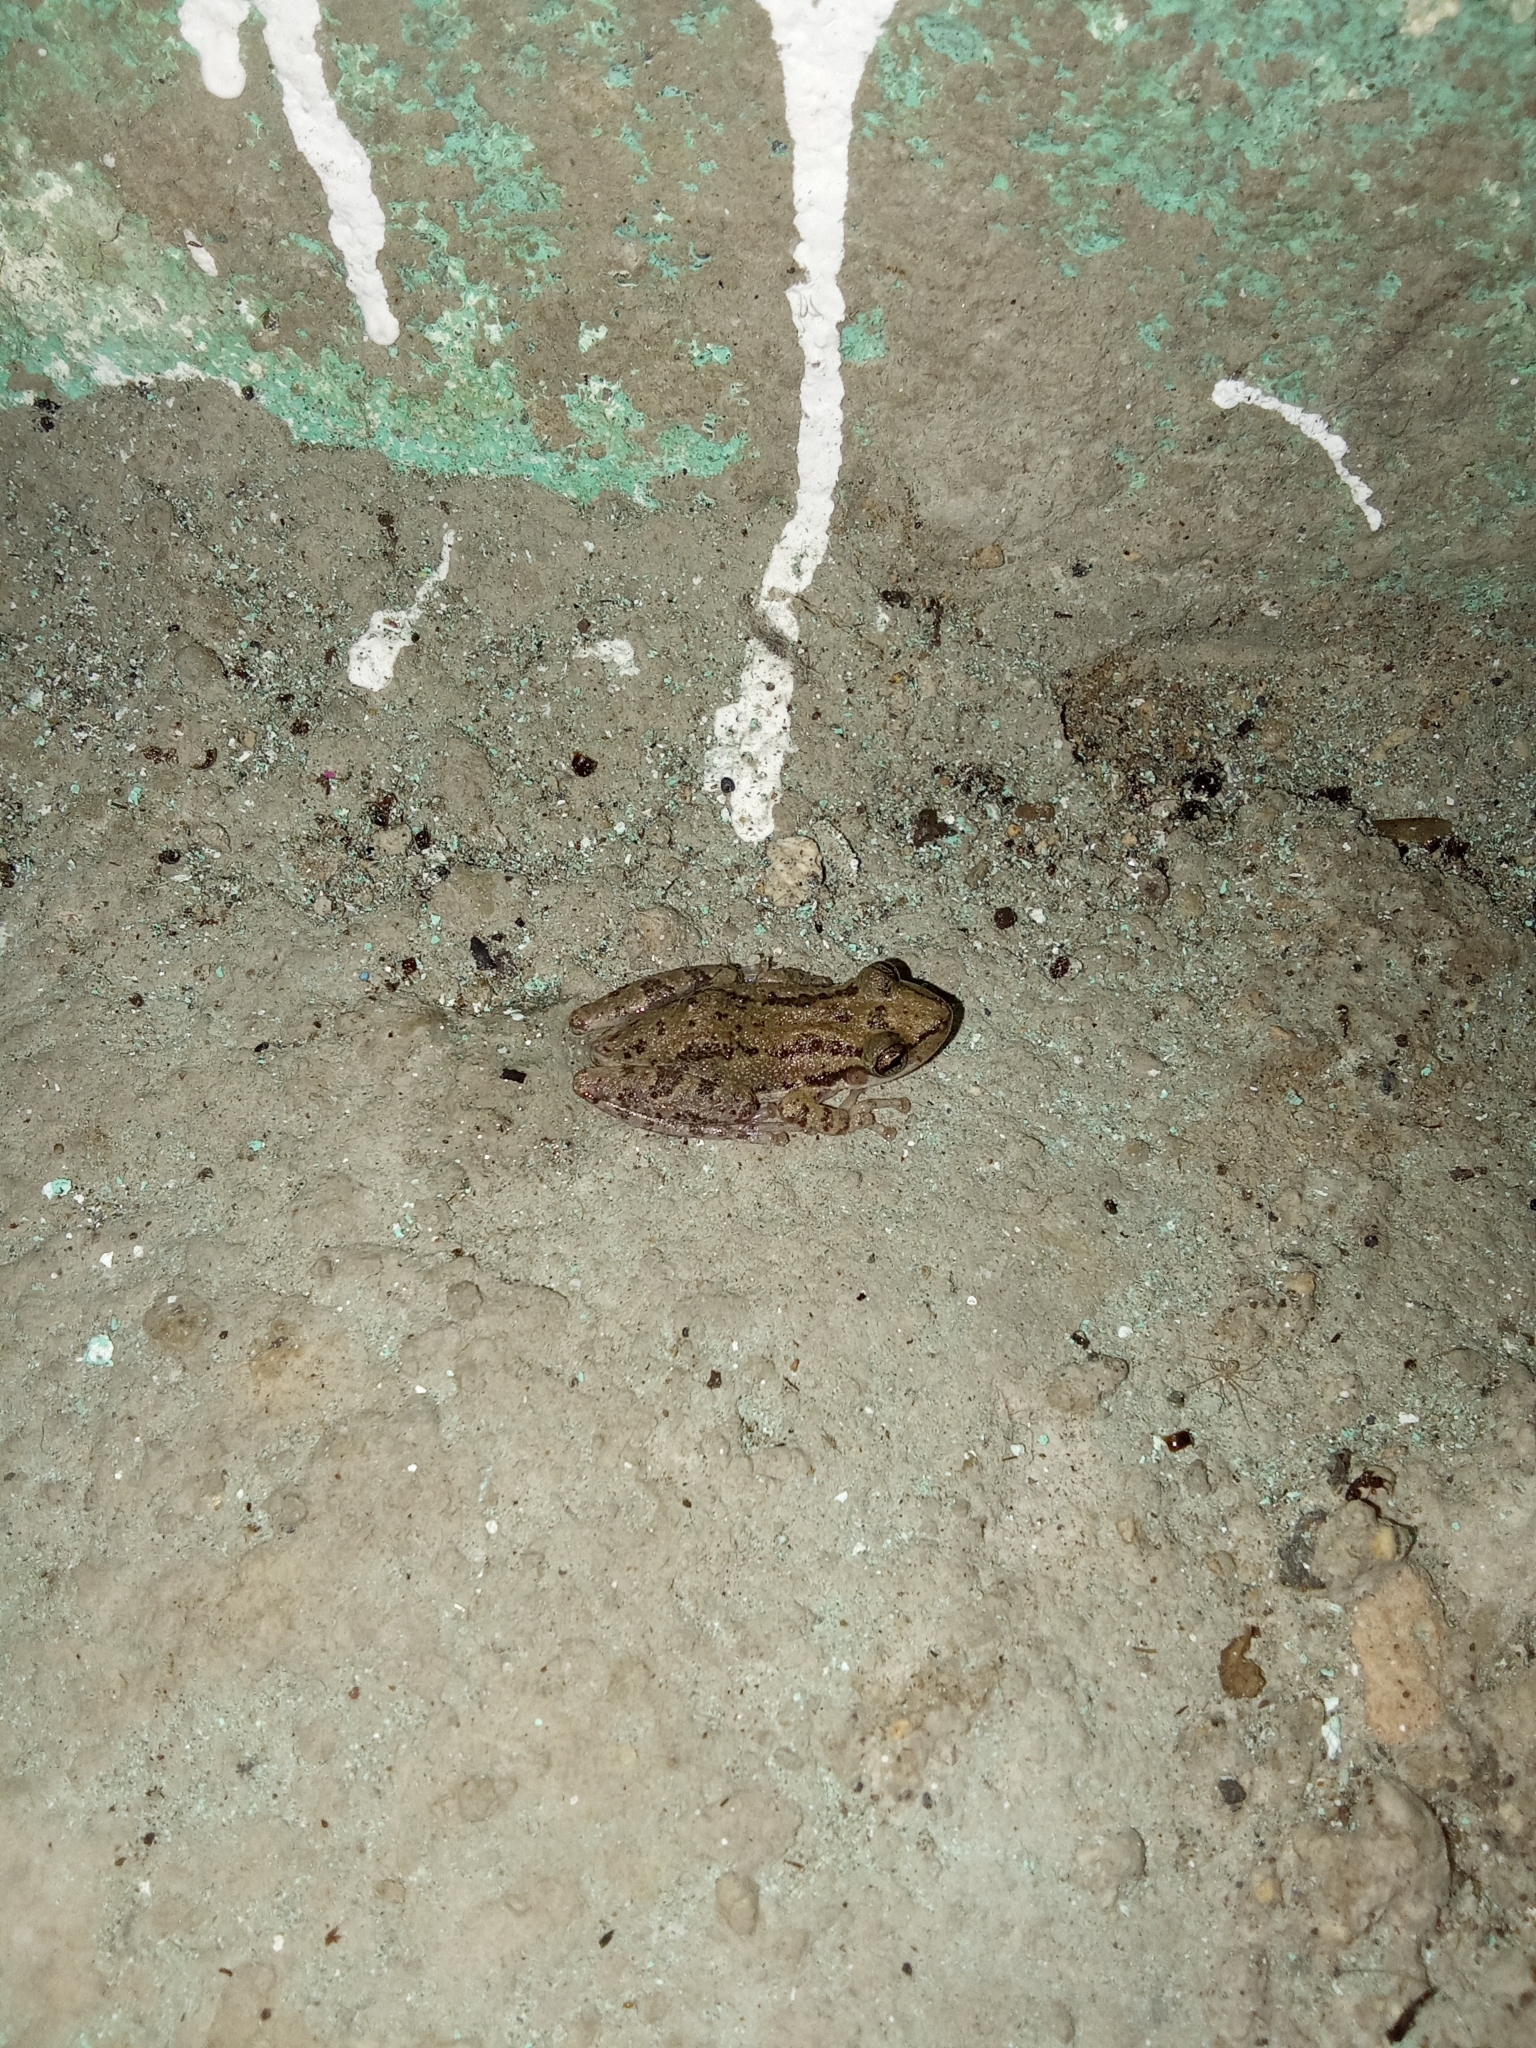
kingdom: Animalia
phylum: Chordata
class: Amphibia
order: Anura
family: Hylidae
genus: Scinax
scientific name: Scinax staufferi
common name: Stauffer's long-nosed treefrog
